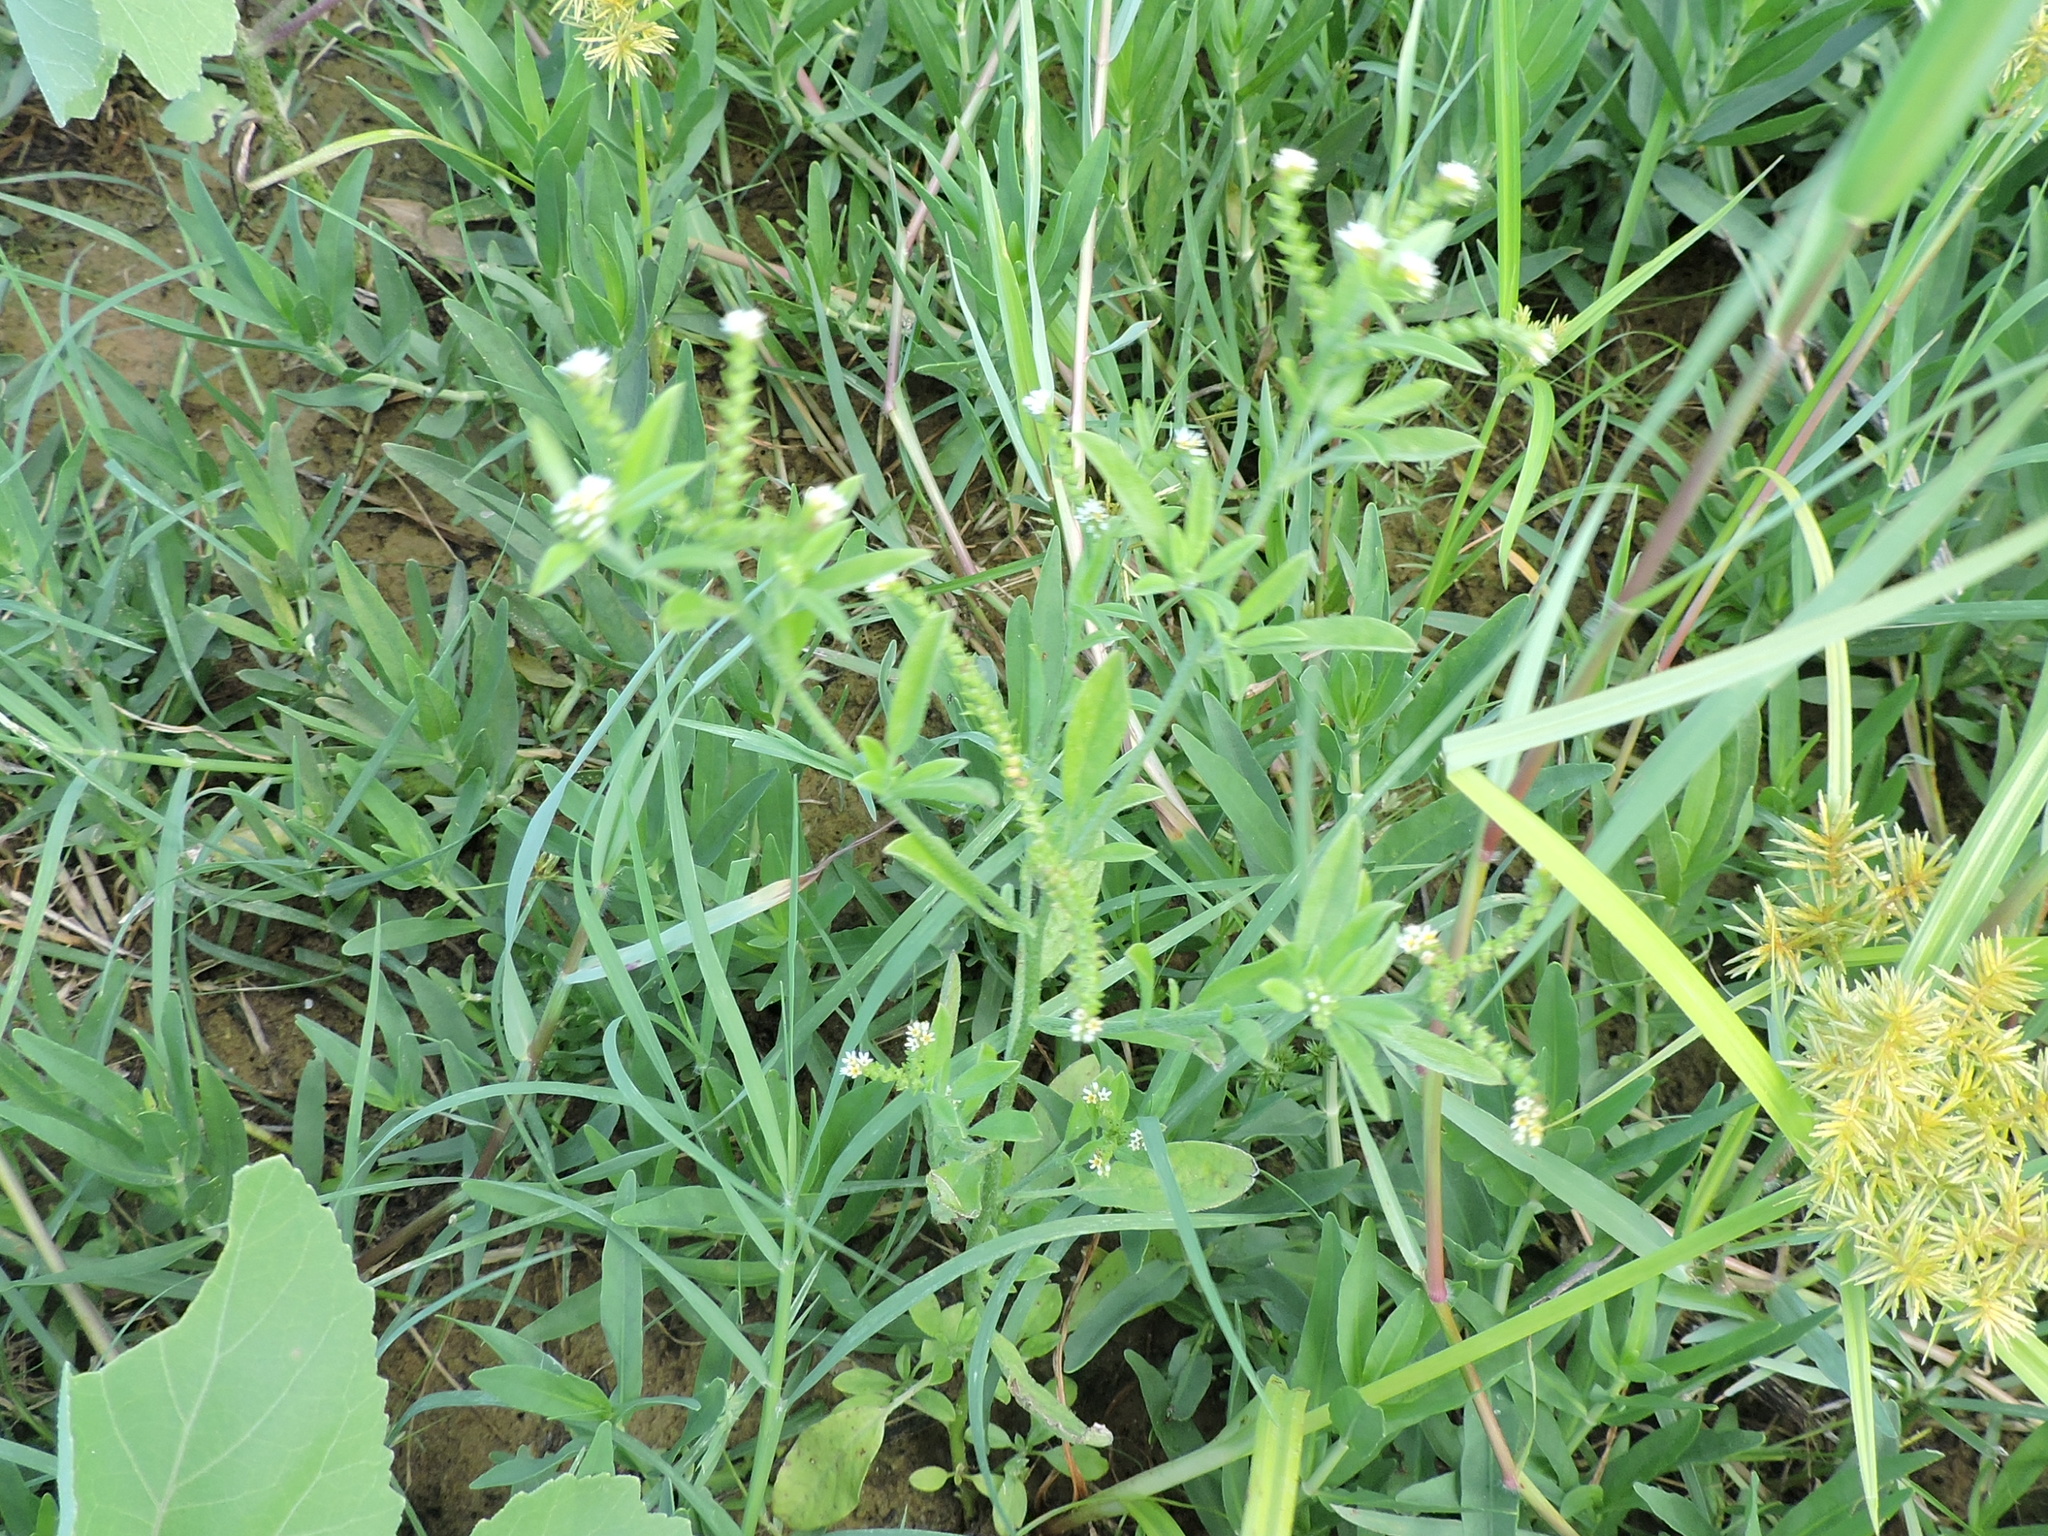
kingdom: Plantae
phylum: Tracheophyta
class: Magnoliopsida
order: Boraginales
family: Heliotropiaceae
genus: Euploca
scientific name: Euploca procumbens
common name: Fourspike heliotrope
